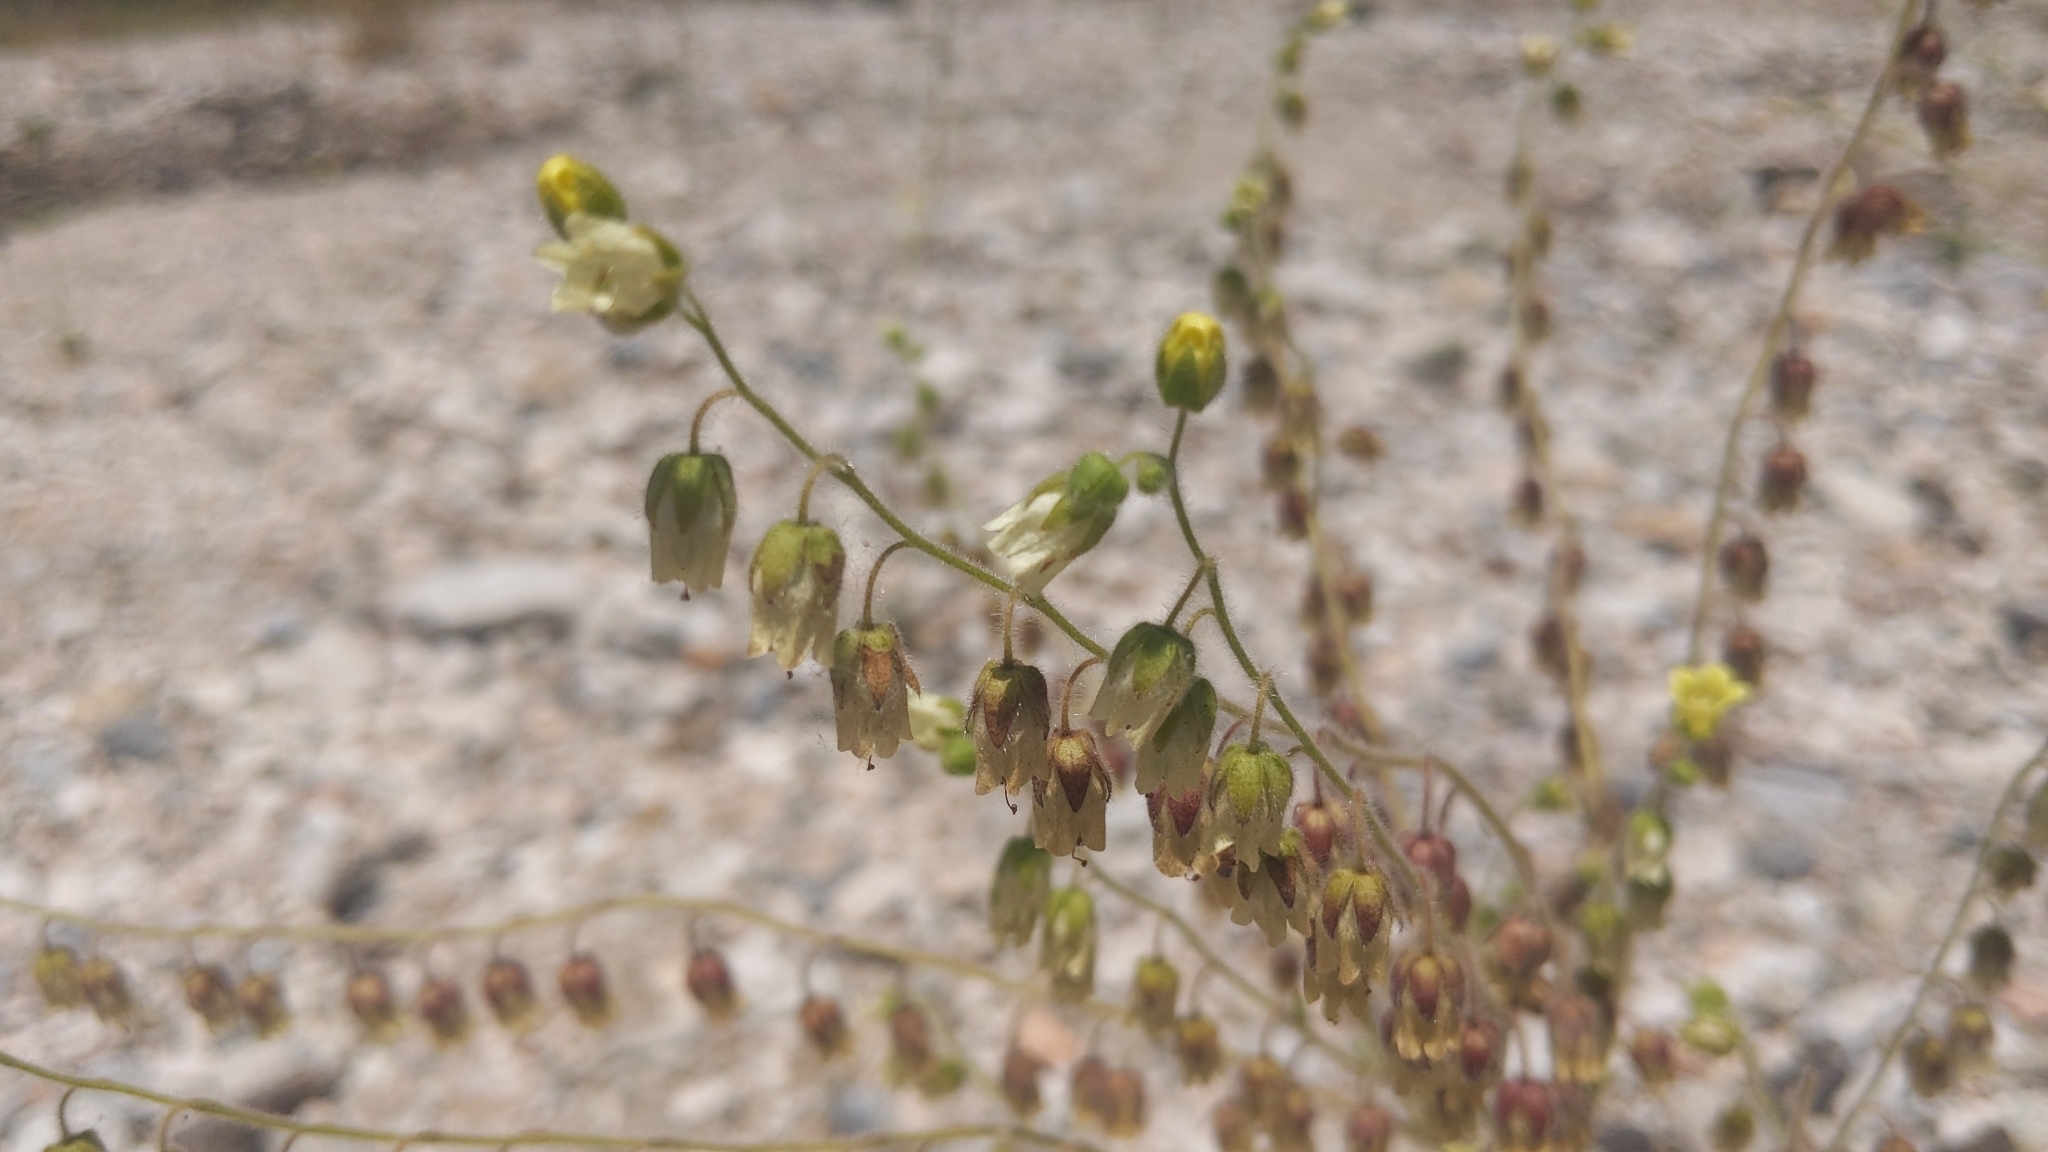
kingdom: Plantae
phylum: Tracheophyta
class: Magnoliopsida
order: Boraginales
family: Hydrophyllaceae
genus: Emmenanthe
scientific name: Emmenanthe penduliflora
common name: Whispering-bells
